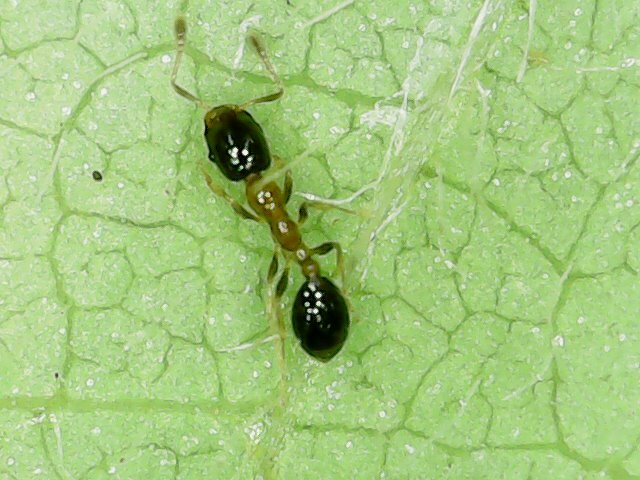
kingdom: Animalia
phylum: Arthropoda
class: Insecta
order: Hymenoptera
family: Formicidae
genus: Monomorium
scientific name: Monomorium floricola
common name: Bicolored trailing ant
